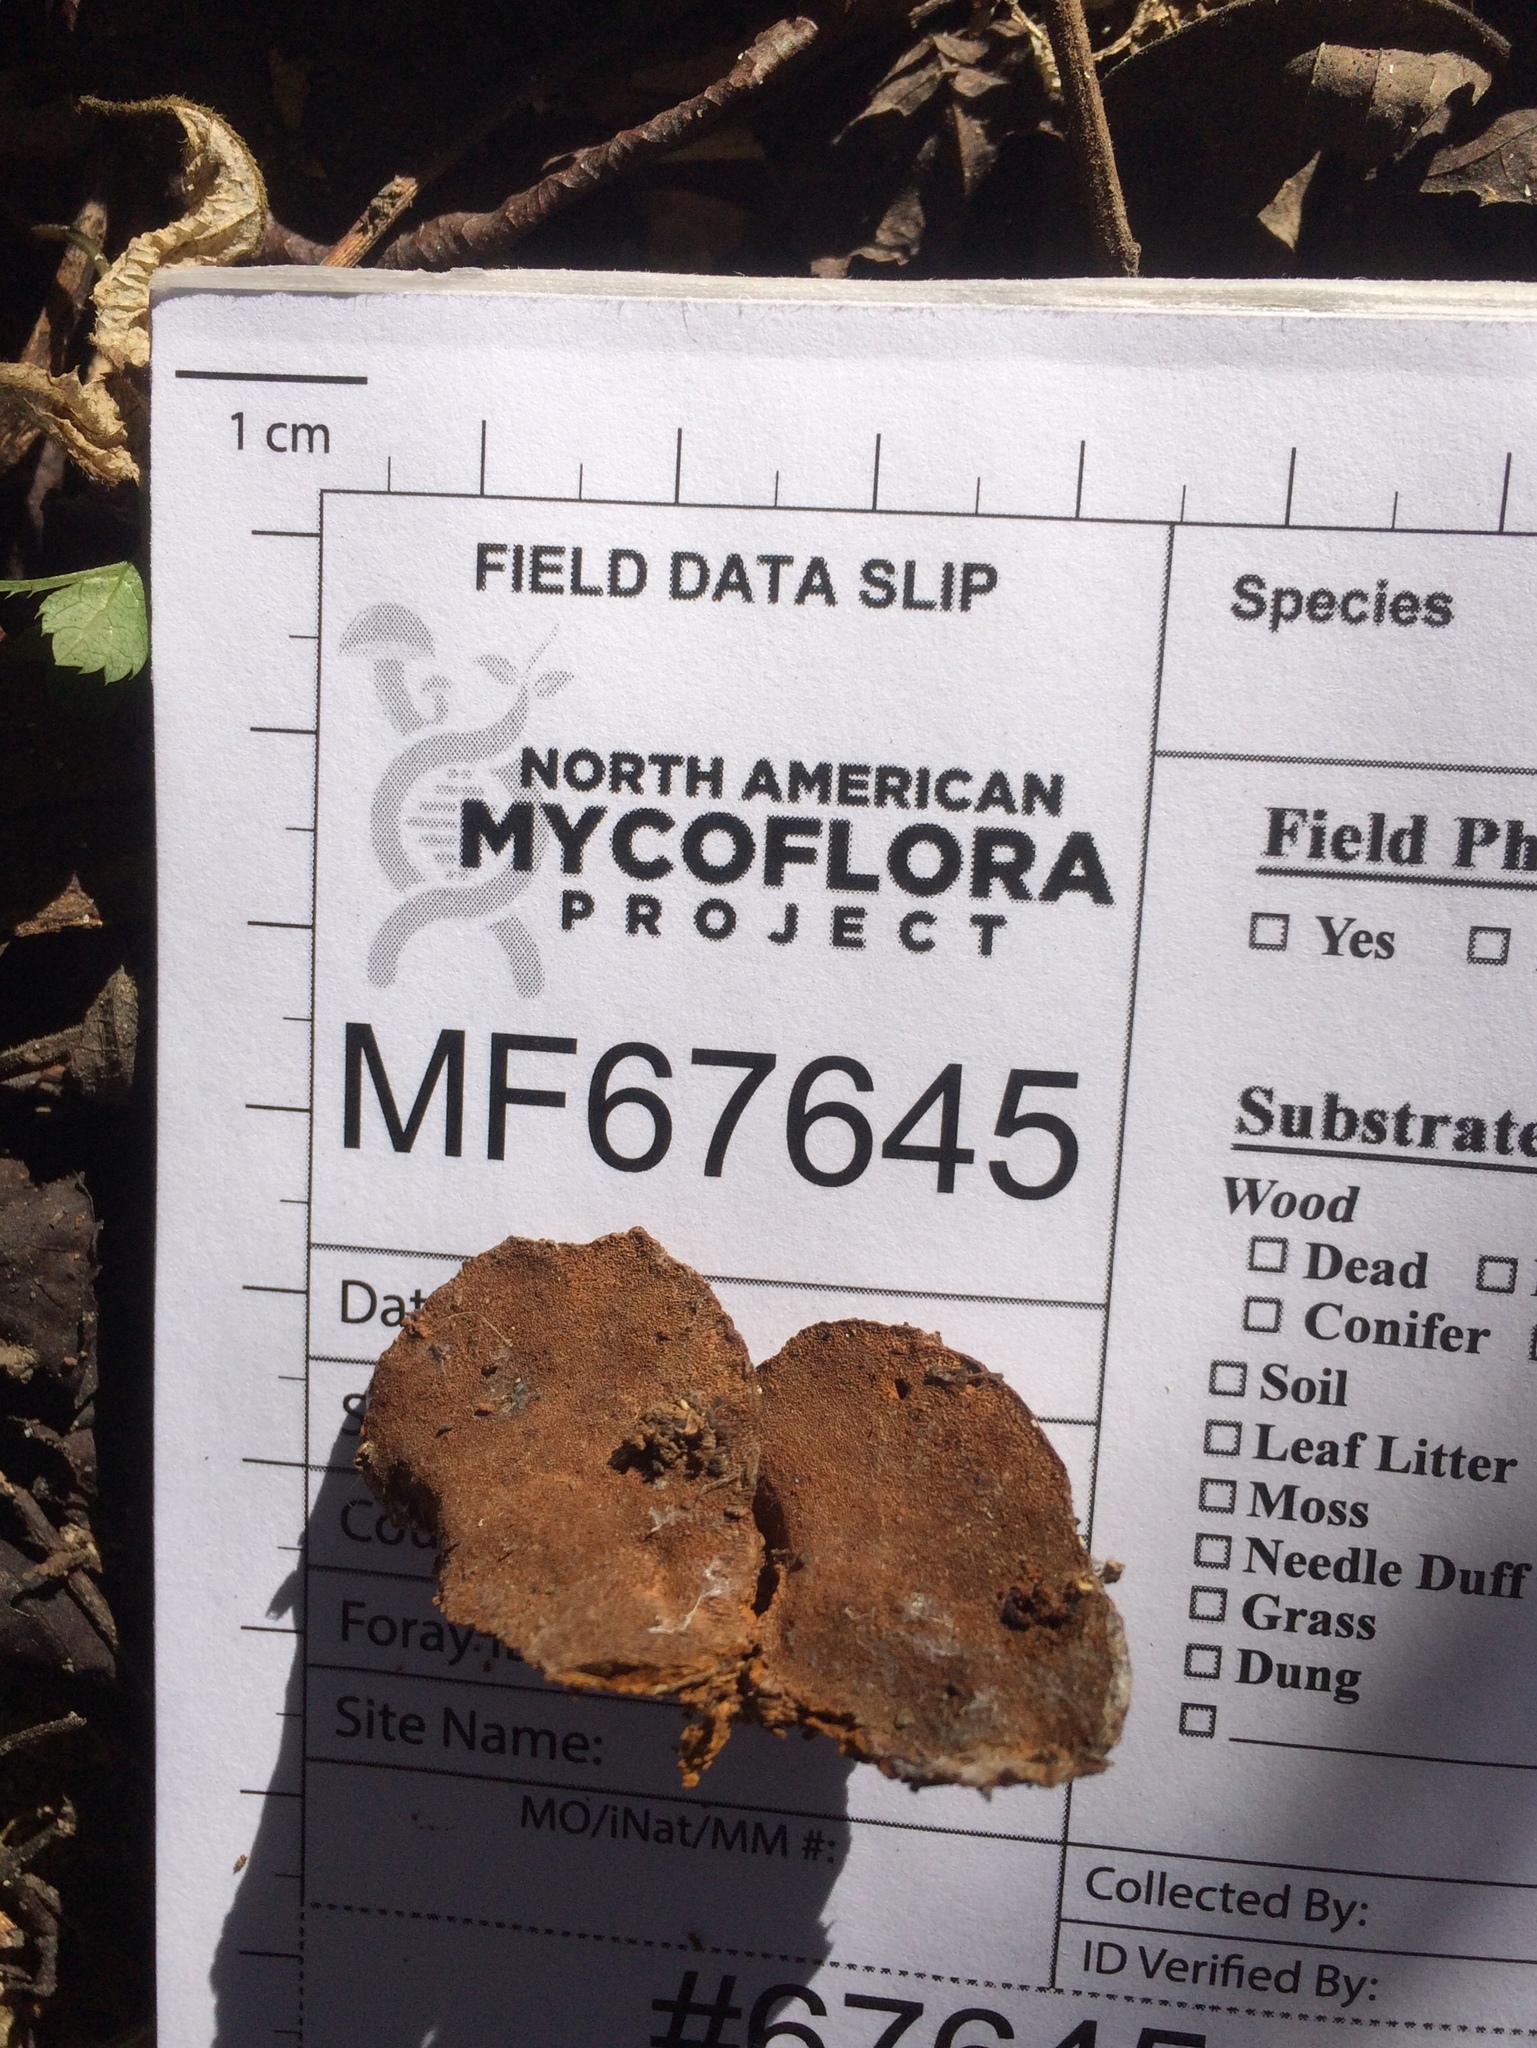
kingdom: Fungi
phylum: Basidiomycota
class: Agaricomycetes
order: Hymenochaetales
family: Hymenochaetaceae
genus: Phellinus
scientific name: Phellinus gilvus
